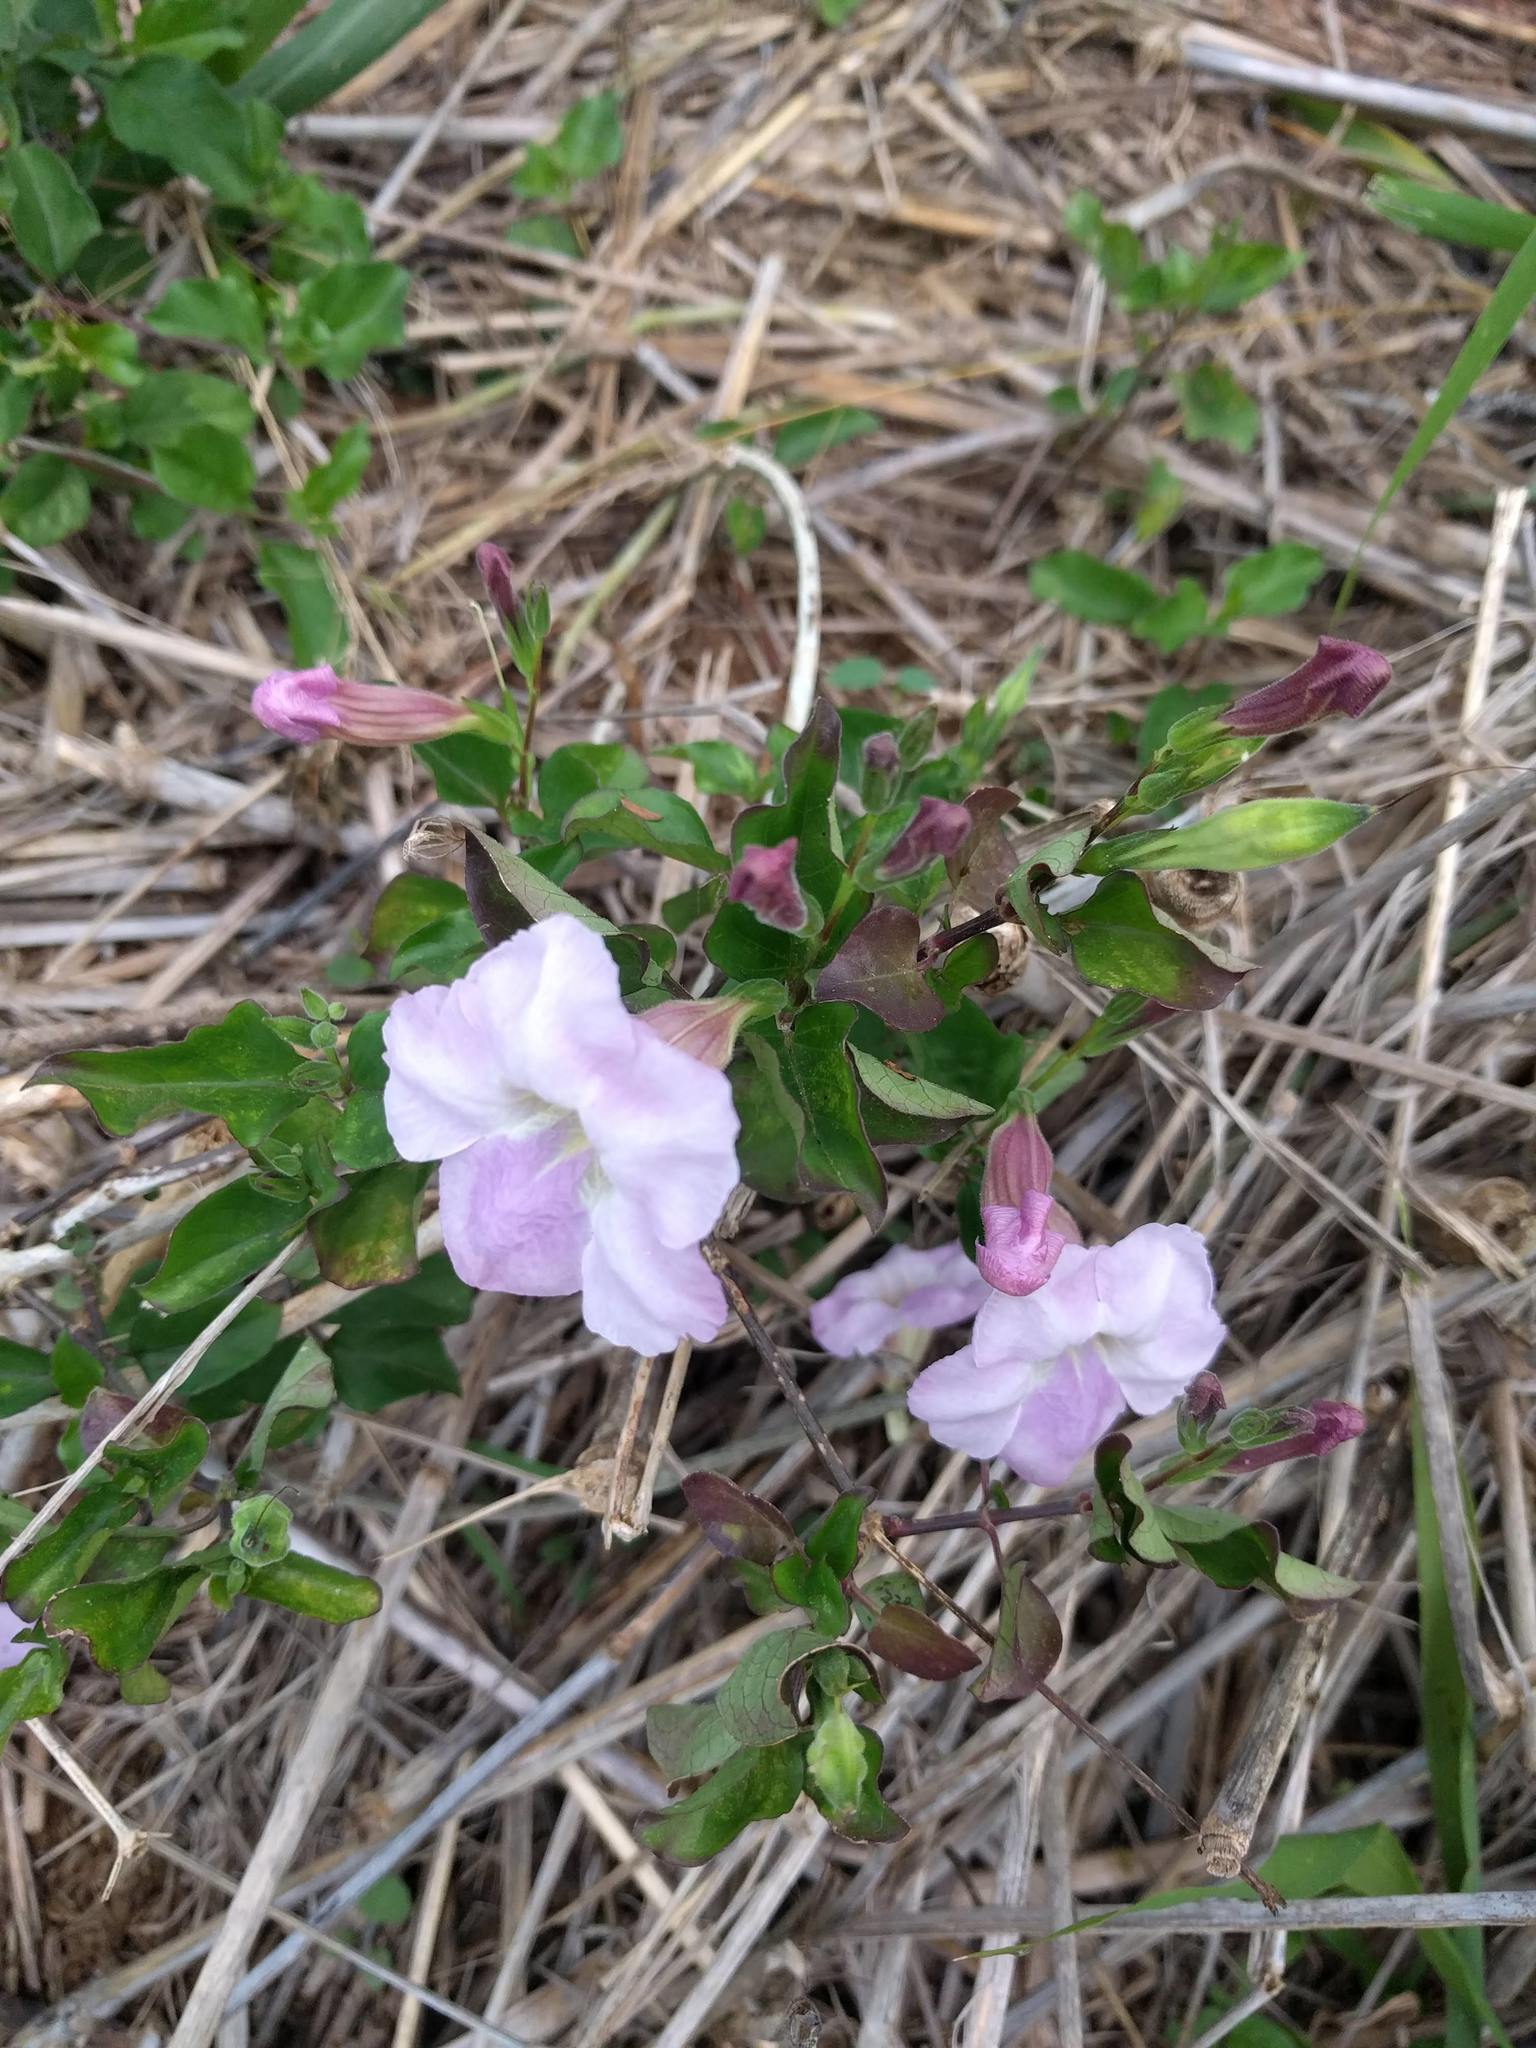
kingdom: Plantae
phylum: Tracheophyta
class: Magnoliopsida
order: Lamiales
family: Acanthaceae
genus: Asystasia
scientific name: Asystasia gangetica
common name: Chinese violet
